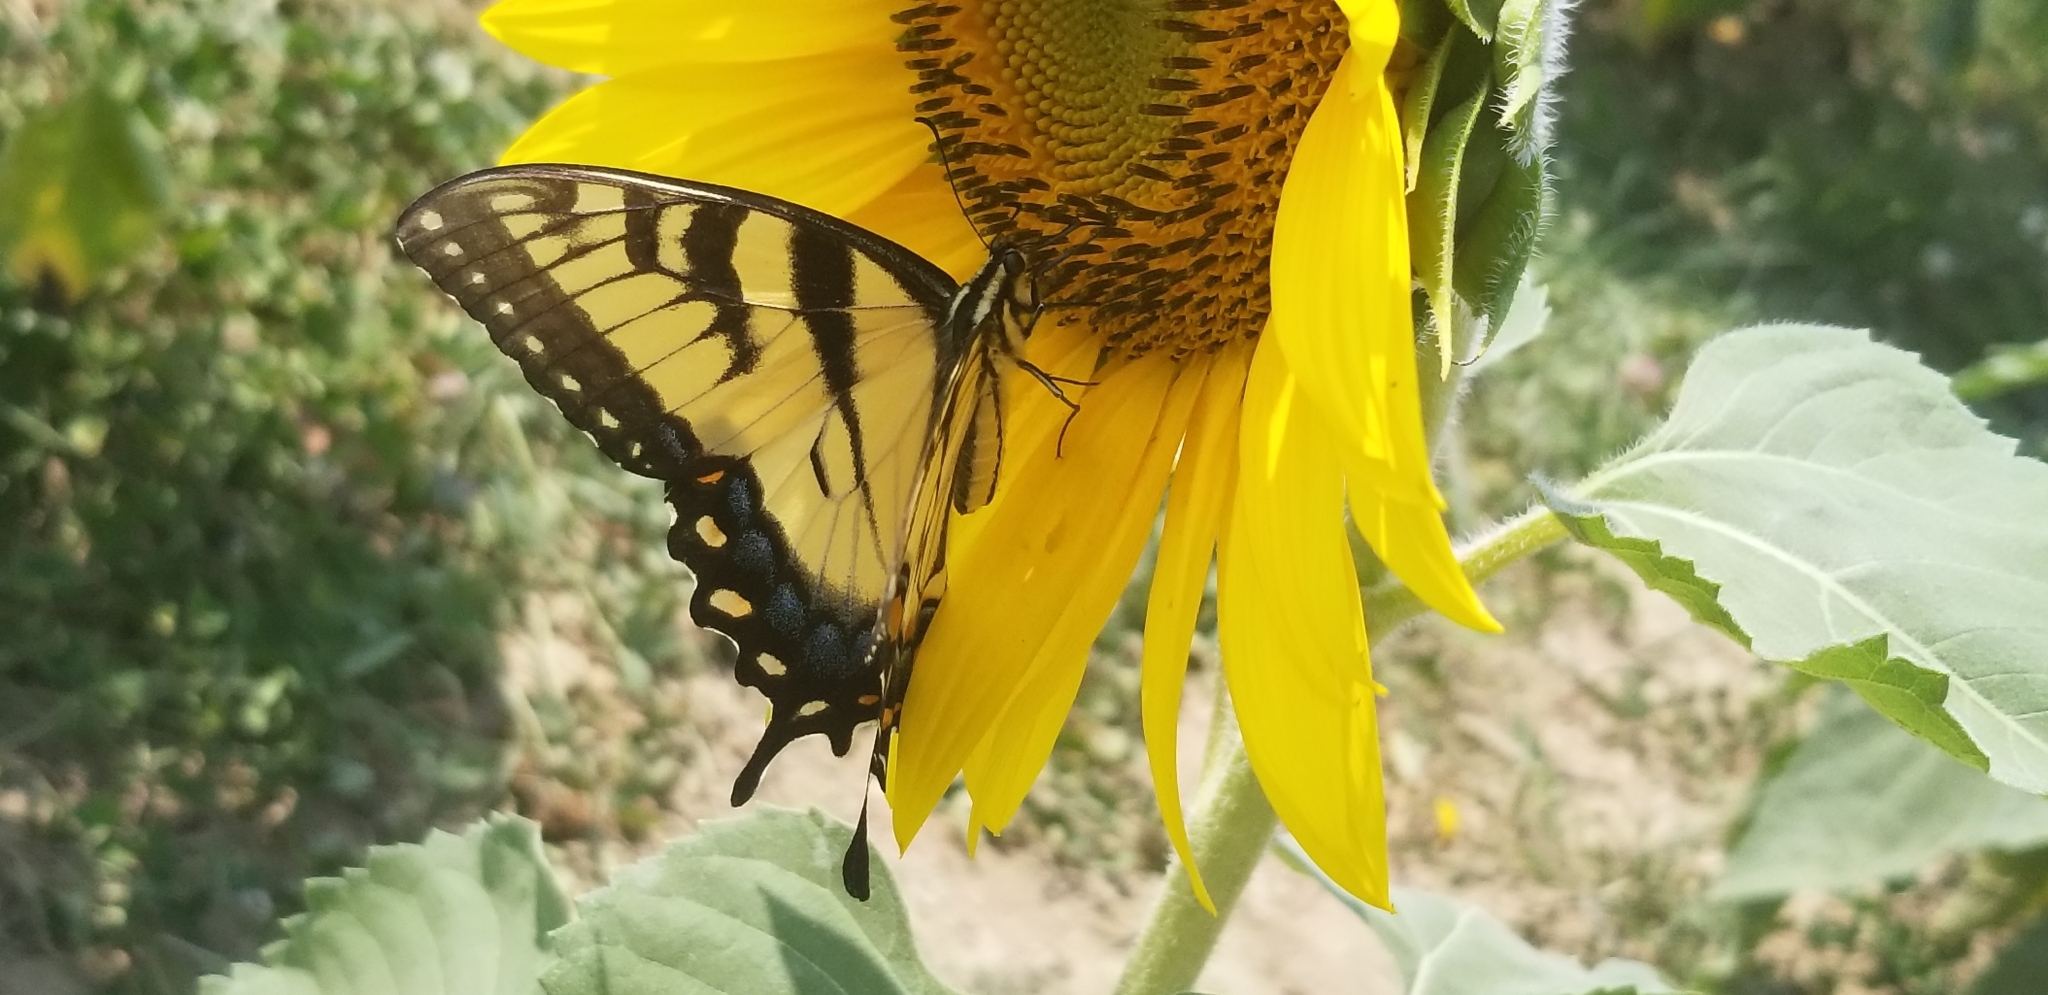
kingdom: Animalia
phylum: Arthropoda
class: Insecta
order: Lepidoptera
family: Papilionidae
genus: Papilio
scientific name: Papilio glaucus
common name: Tiger swallowtail
